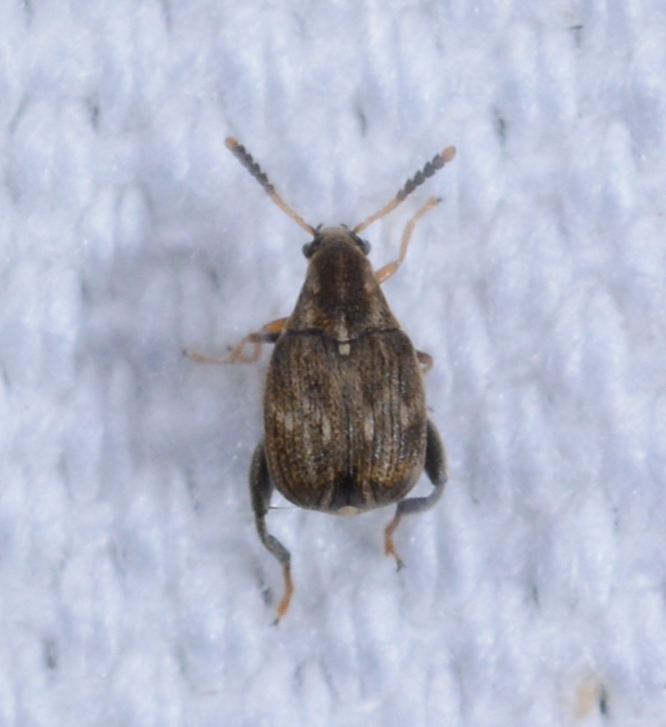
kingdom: Animalia
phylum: Arthropoda
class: Insecta
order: Coleoptera
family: Chrysomelidae
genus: Meibomeus
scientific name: Meibomeus musculus
